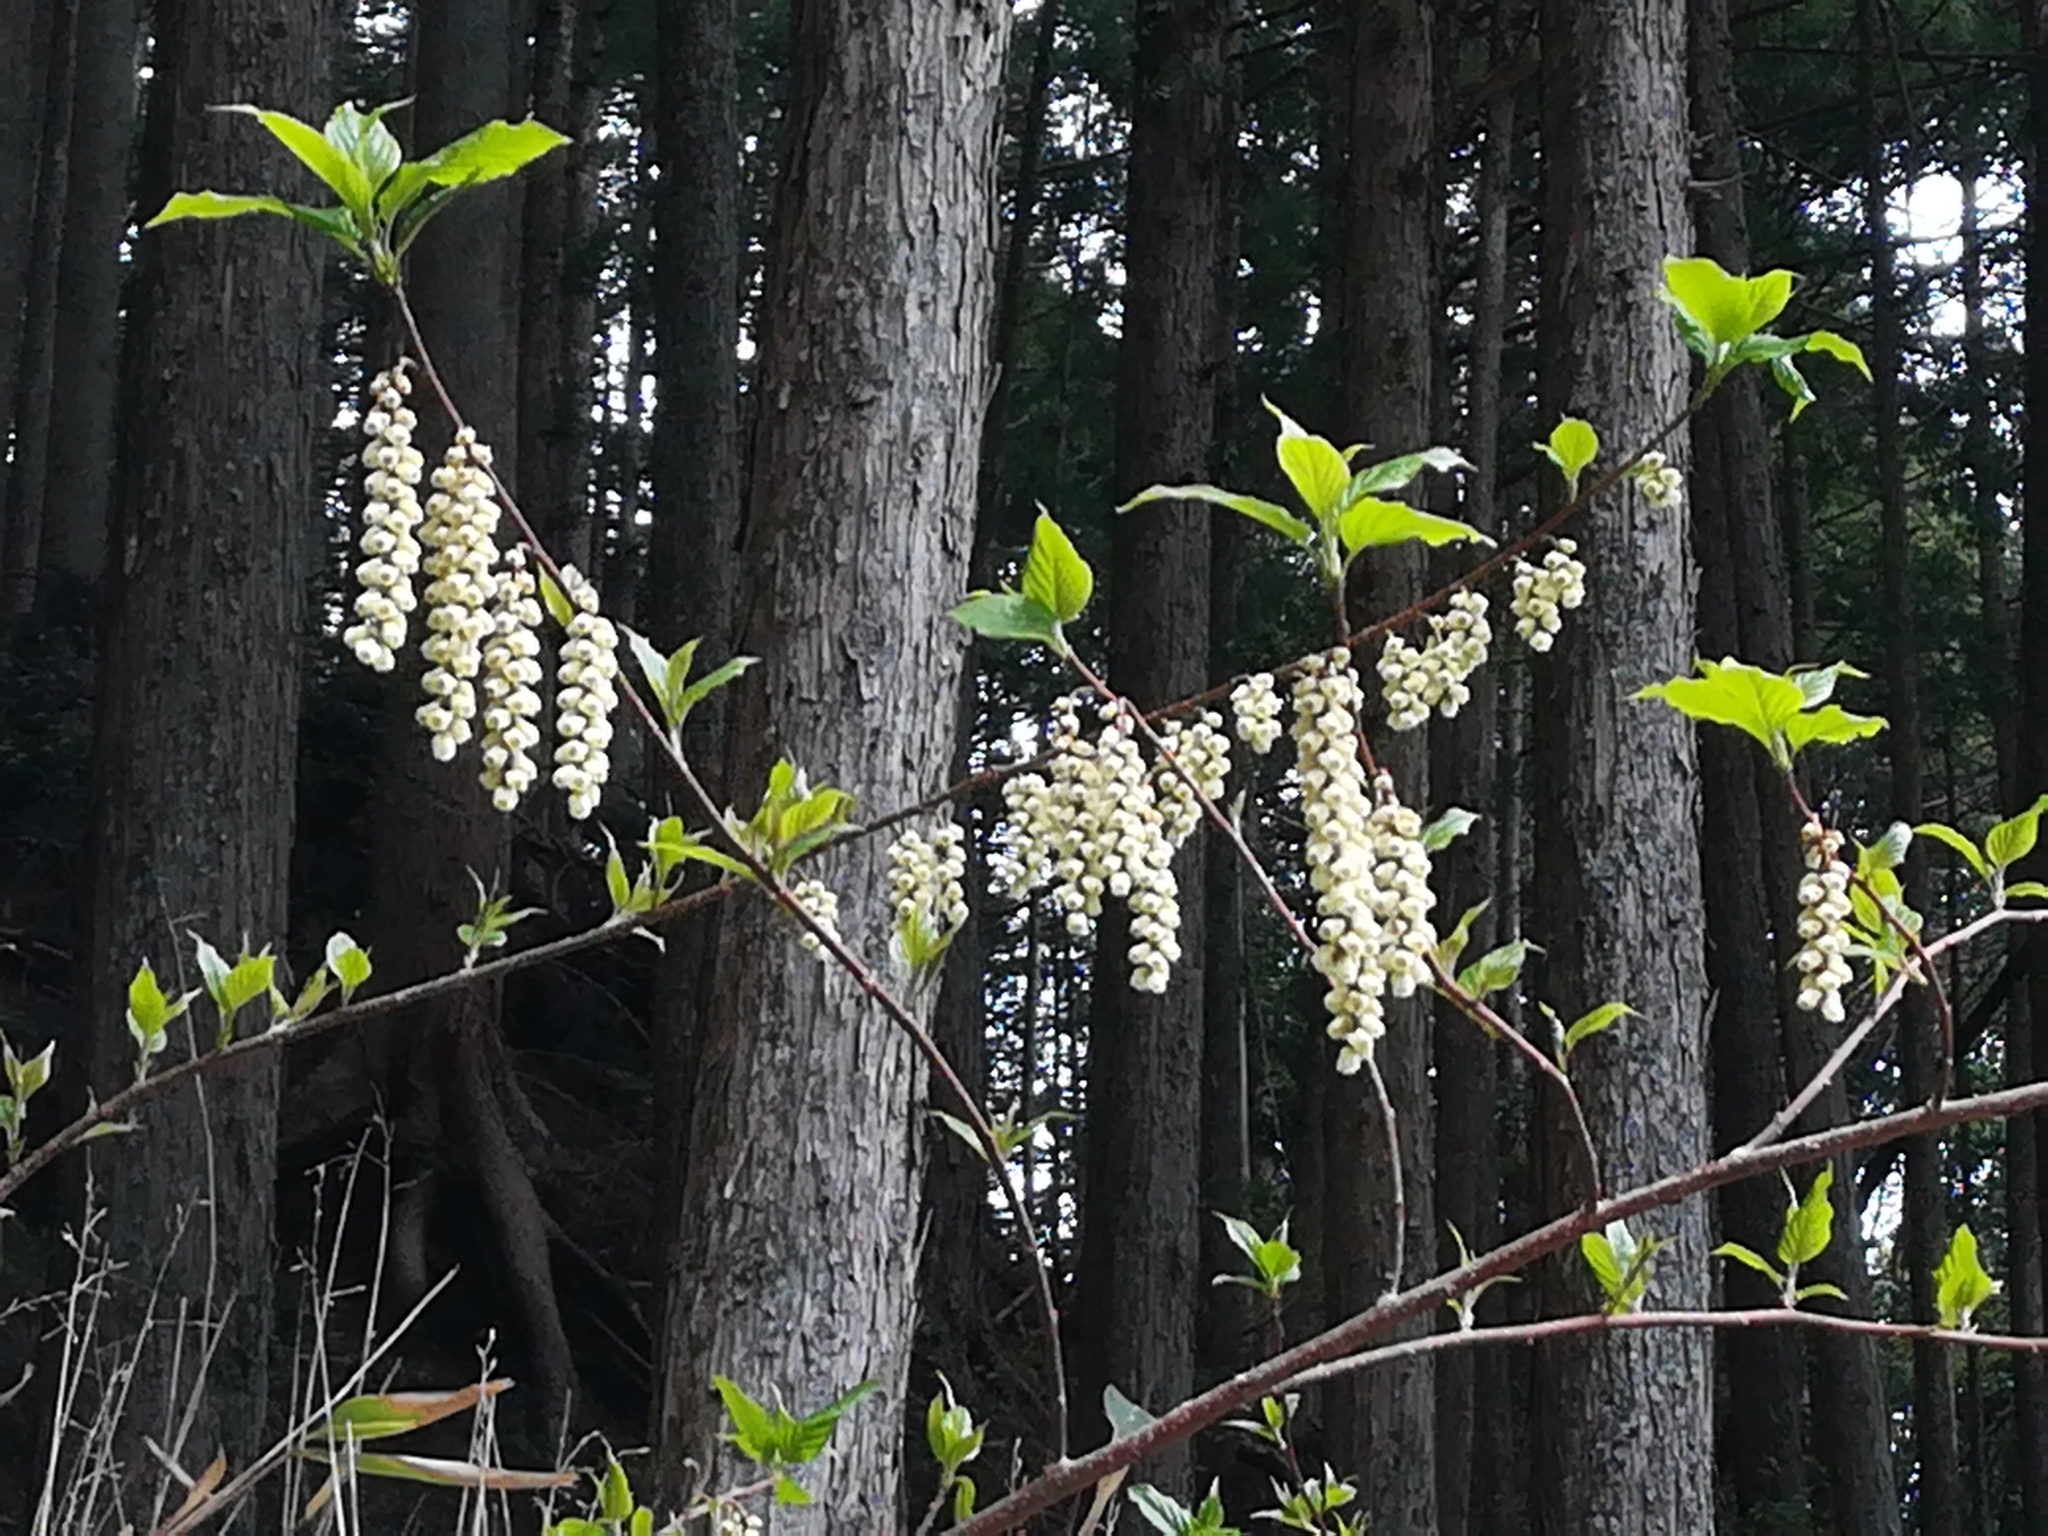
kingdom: Plantae
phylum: Tracheophyta
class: Magnoliopsida
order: Crossosomatales
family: Stachyuraceae
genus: Stachyurus
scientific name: Stachyurus praecox
